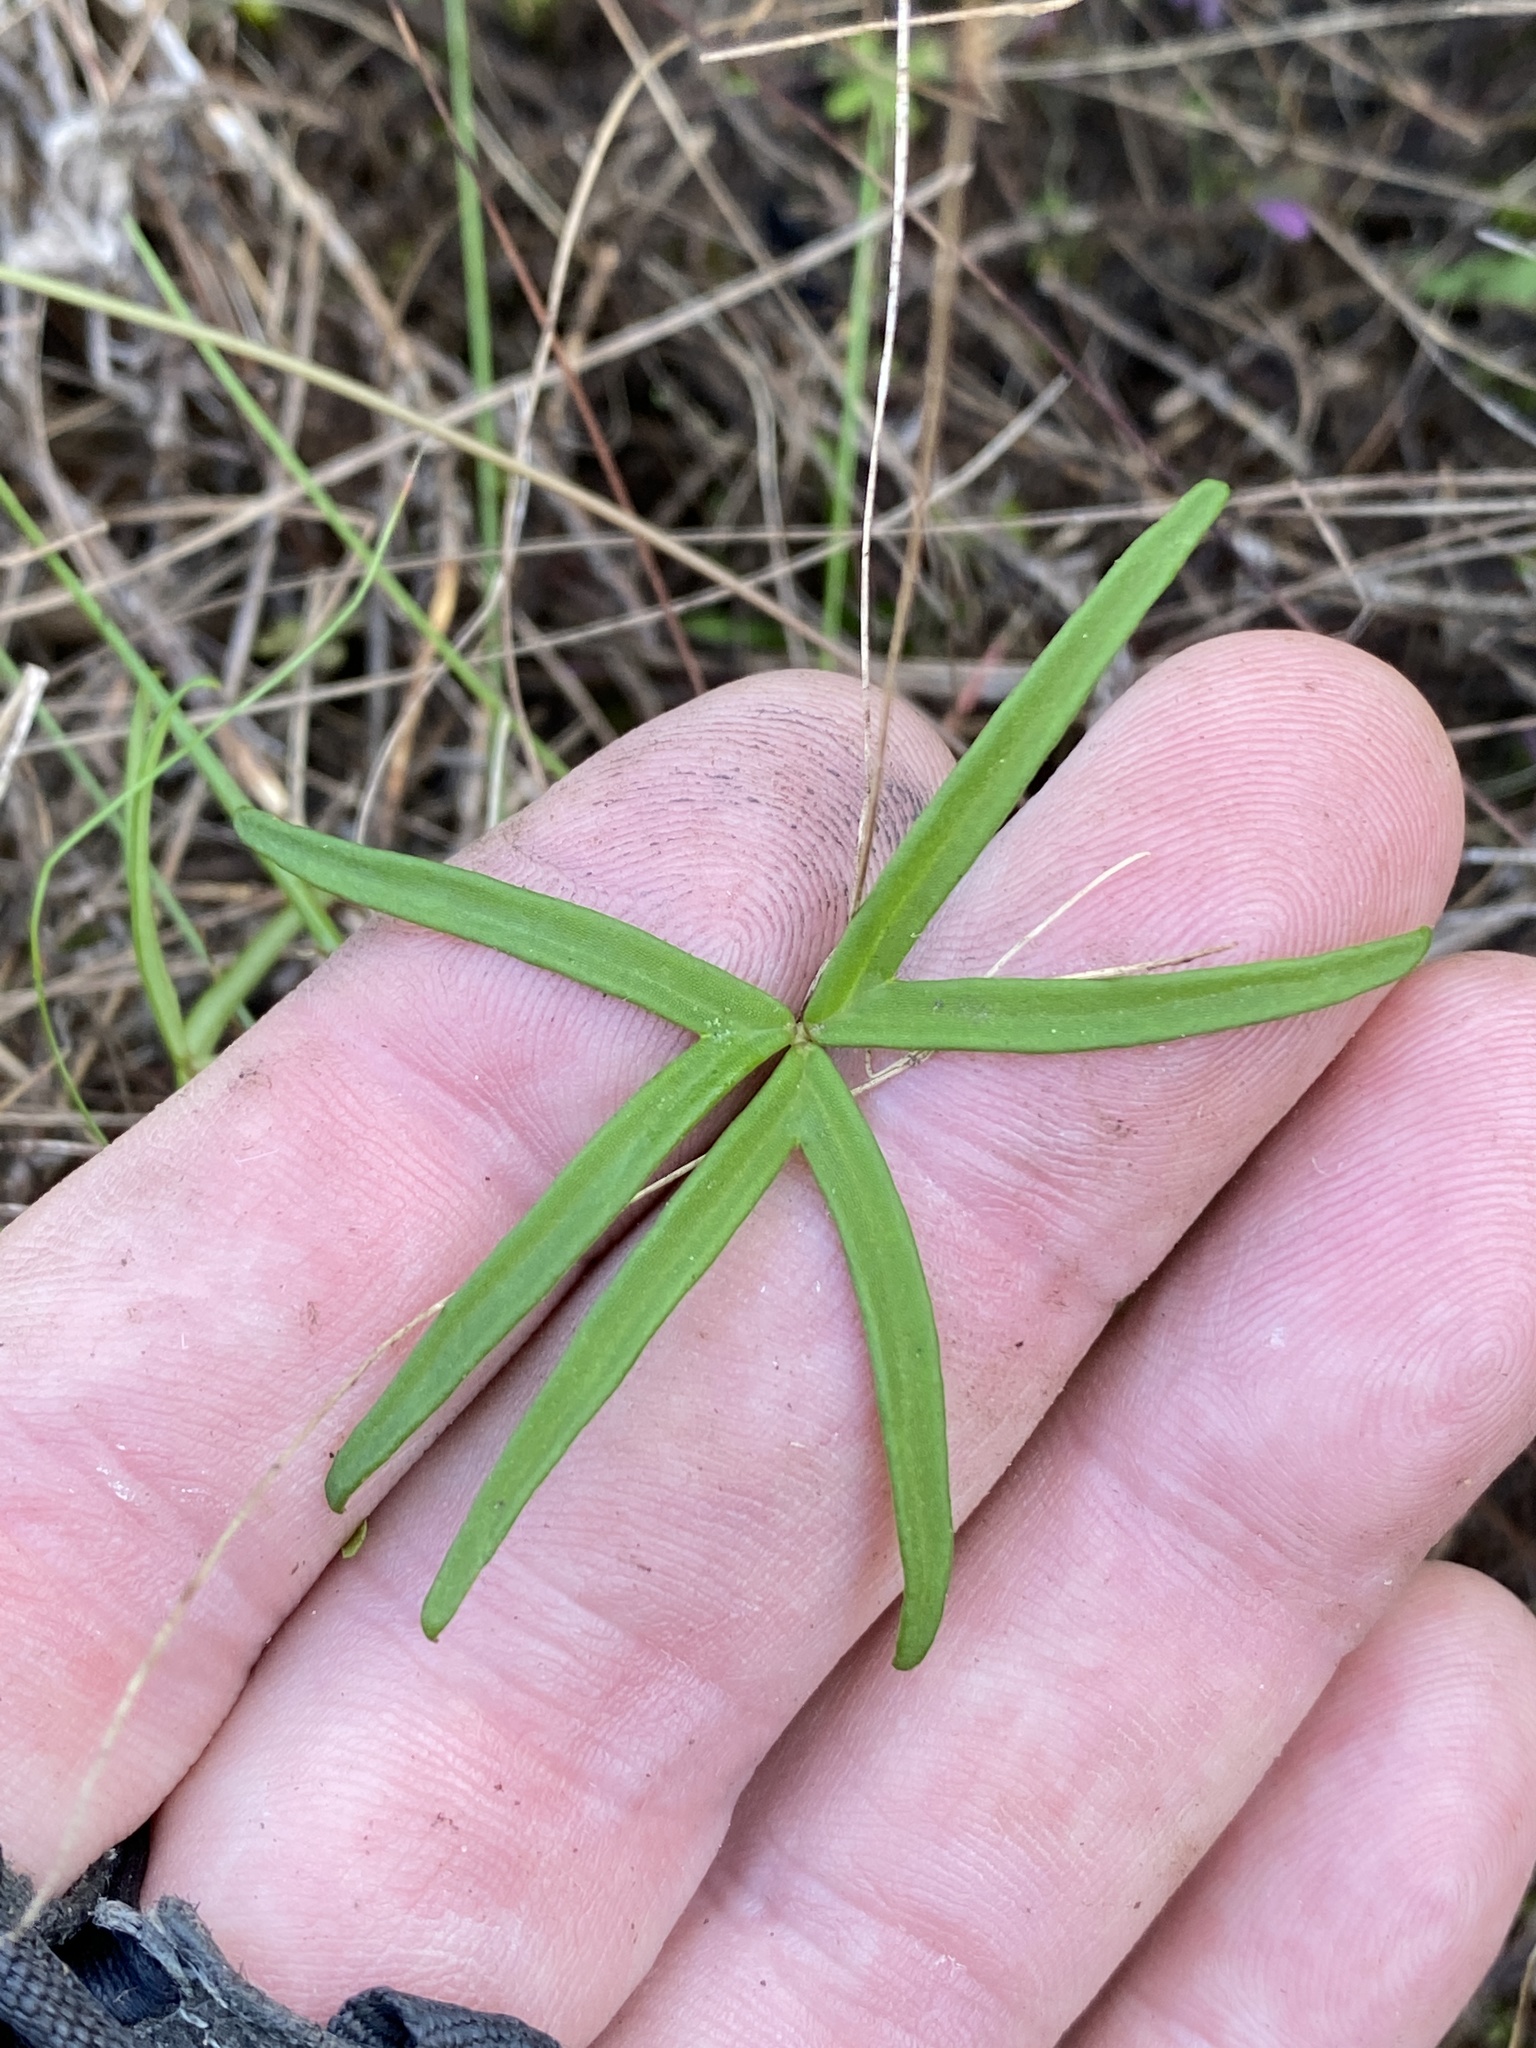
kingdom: Plantae
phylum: Tracheophyta
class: Magnoliopsida
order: Oxalidales
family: Oxalidaceae
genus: Oxalis
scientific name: Oxalis smithiana
